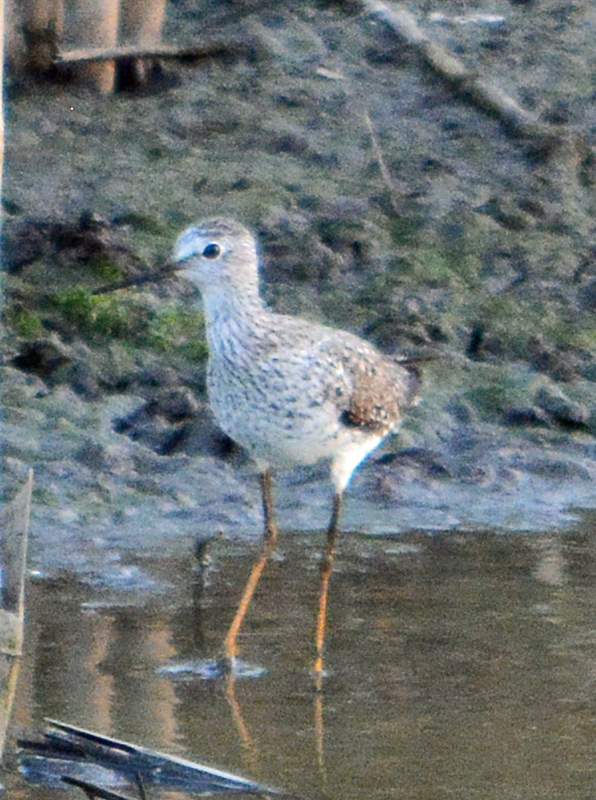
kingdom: Animalia
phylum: Chordata
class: Aves
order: Charadriiformes
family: Scolopacidae
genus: Tringa
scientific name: Tringa flavipes
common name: Lesser yellowlegs
